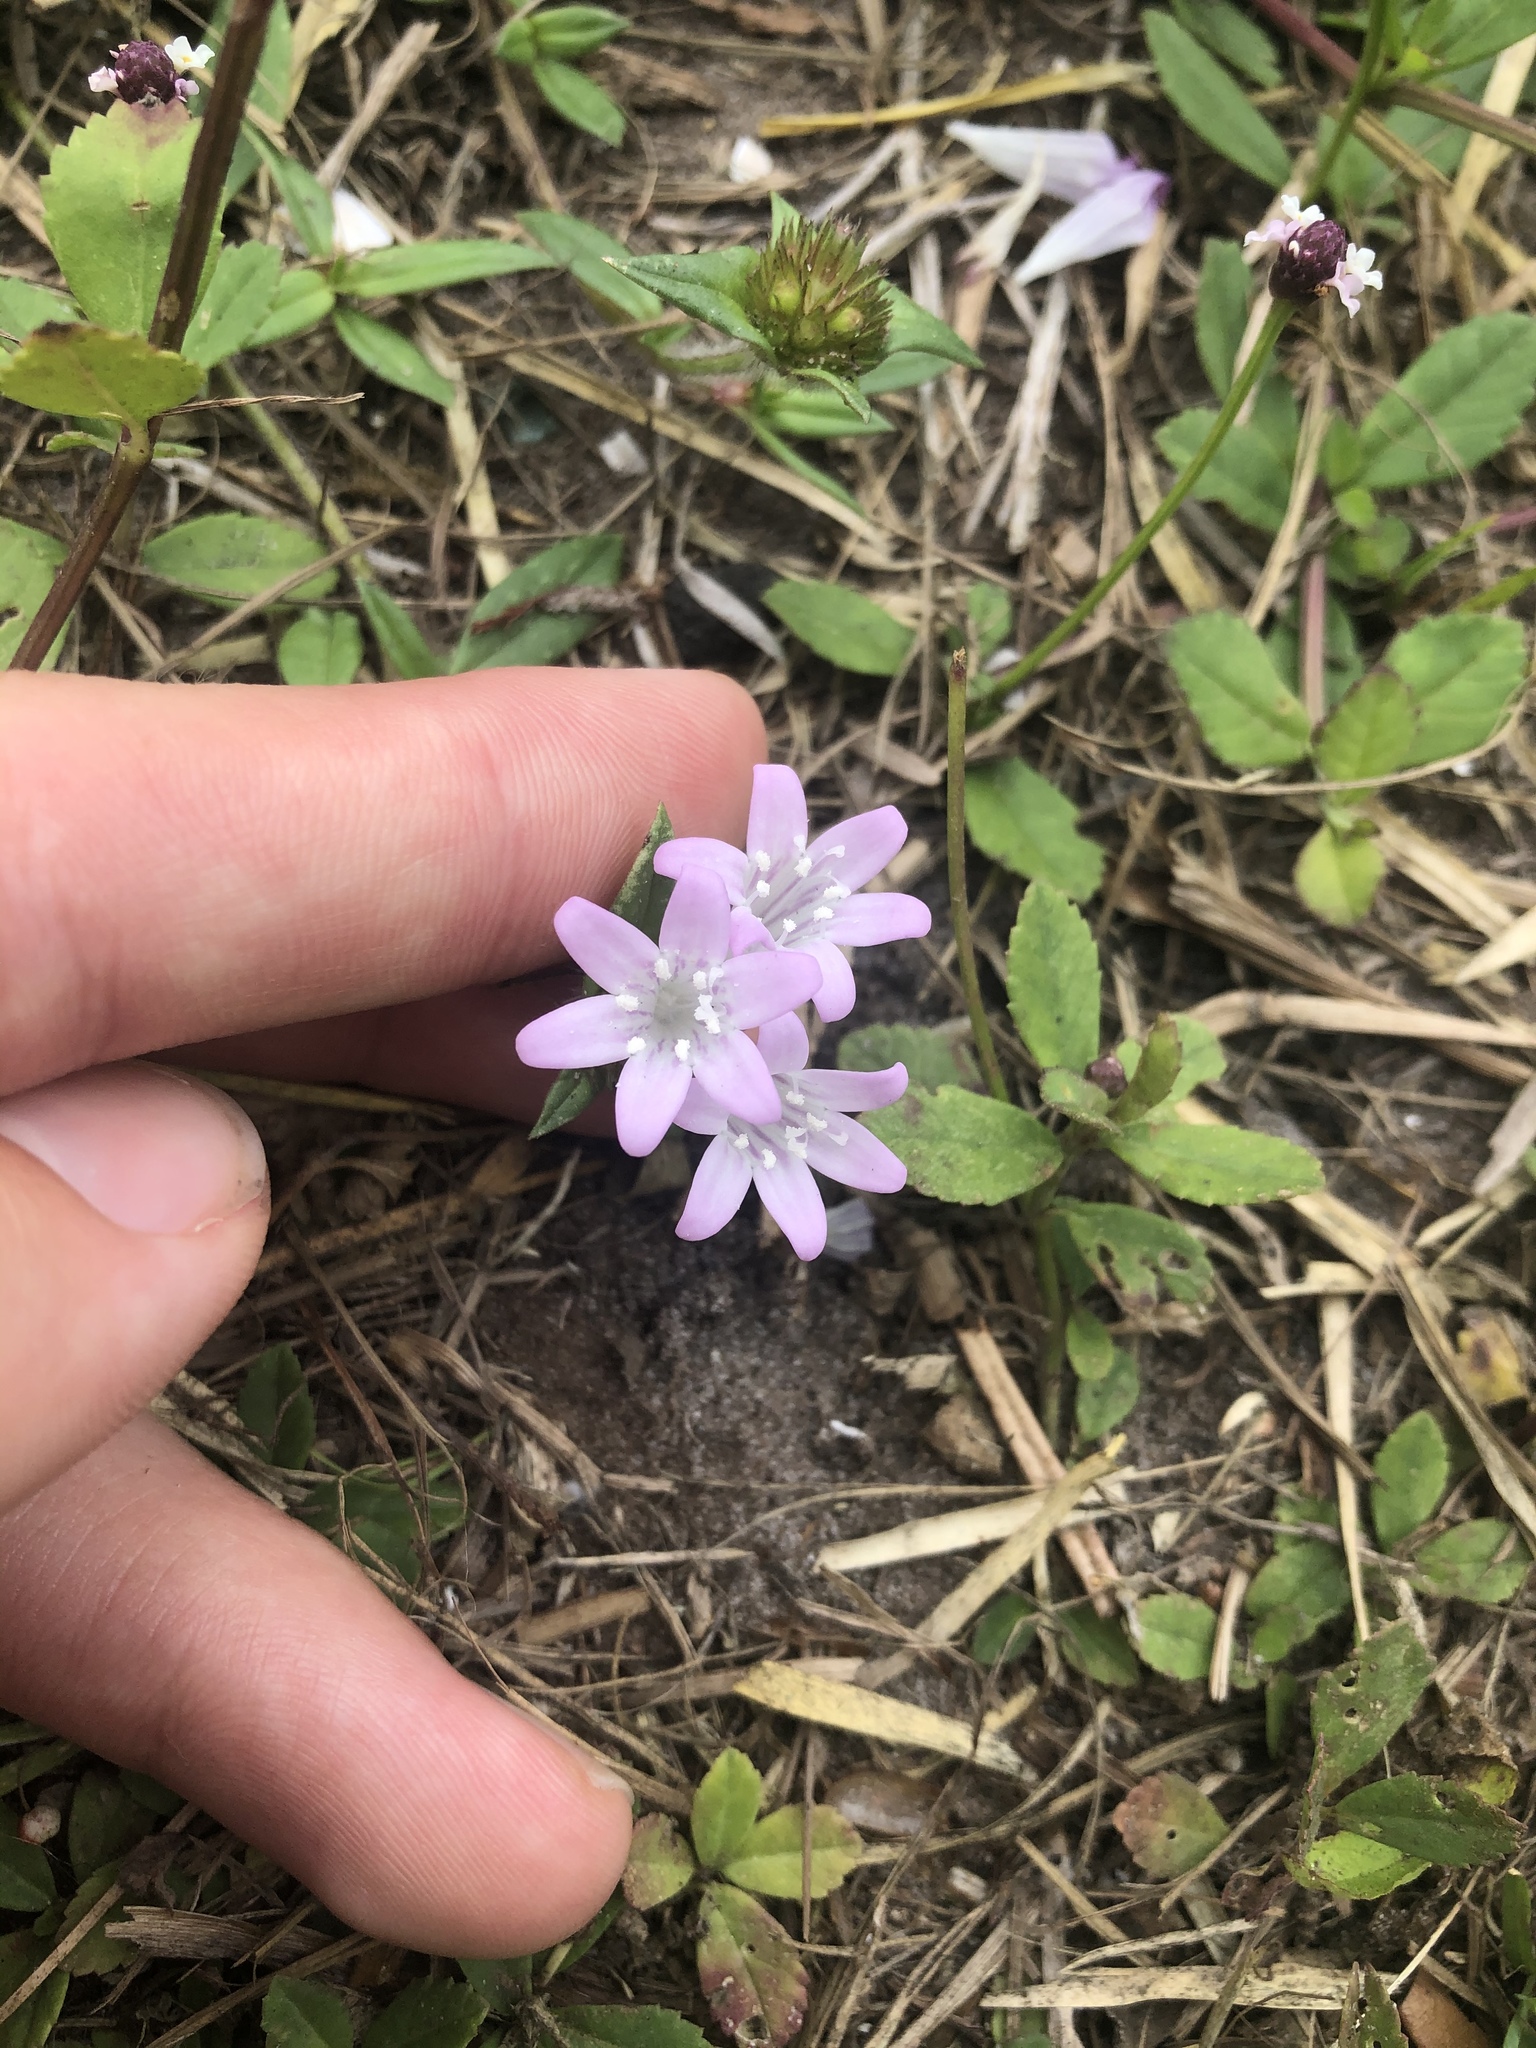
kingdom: Plantae
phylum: Tracheophyta
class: Magnoliopsida
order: Gentianales
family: Rubiaceae
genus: Richardia
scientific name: Richardia grandiflora
